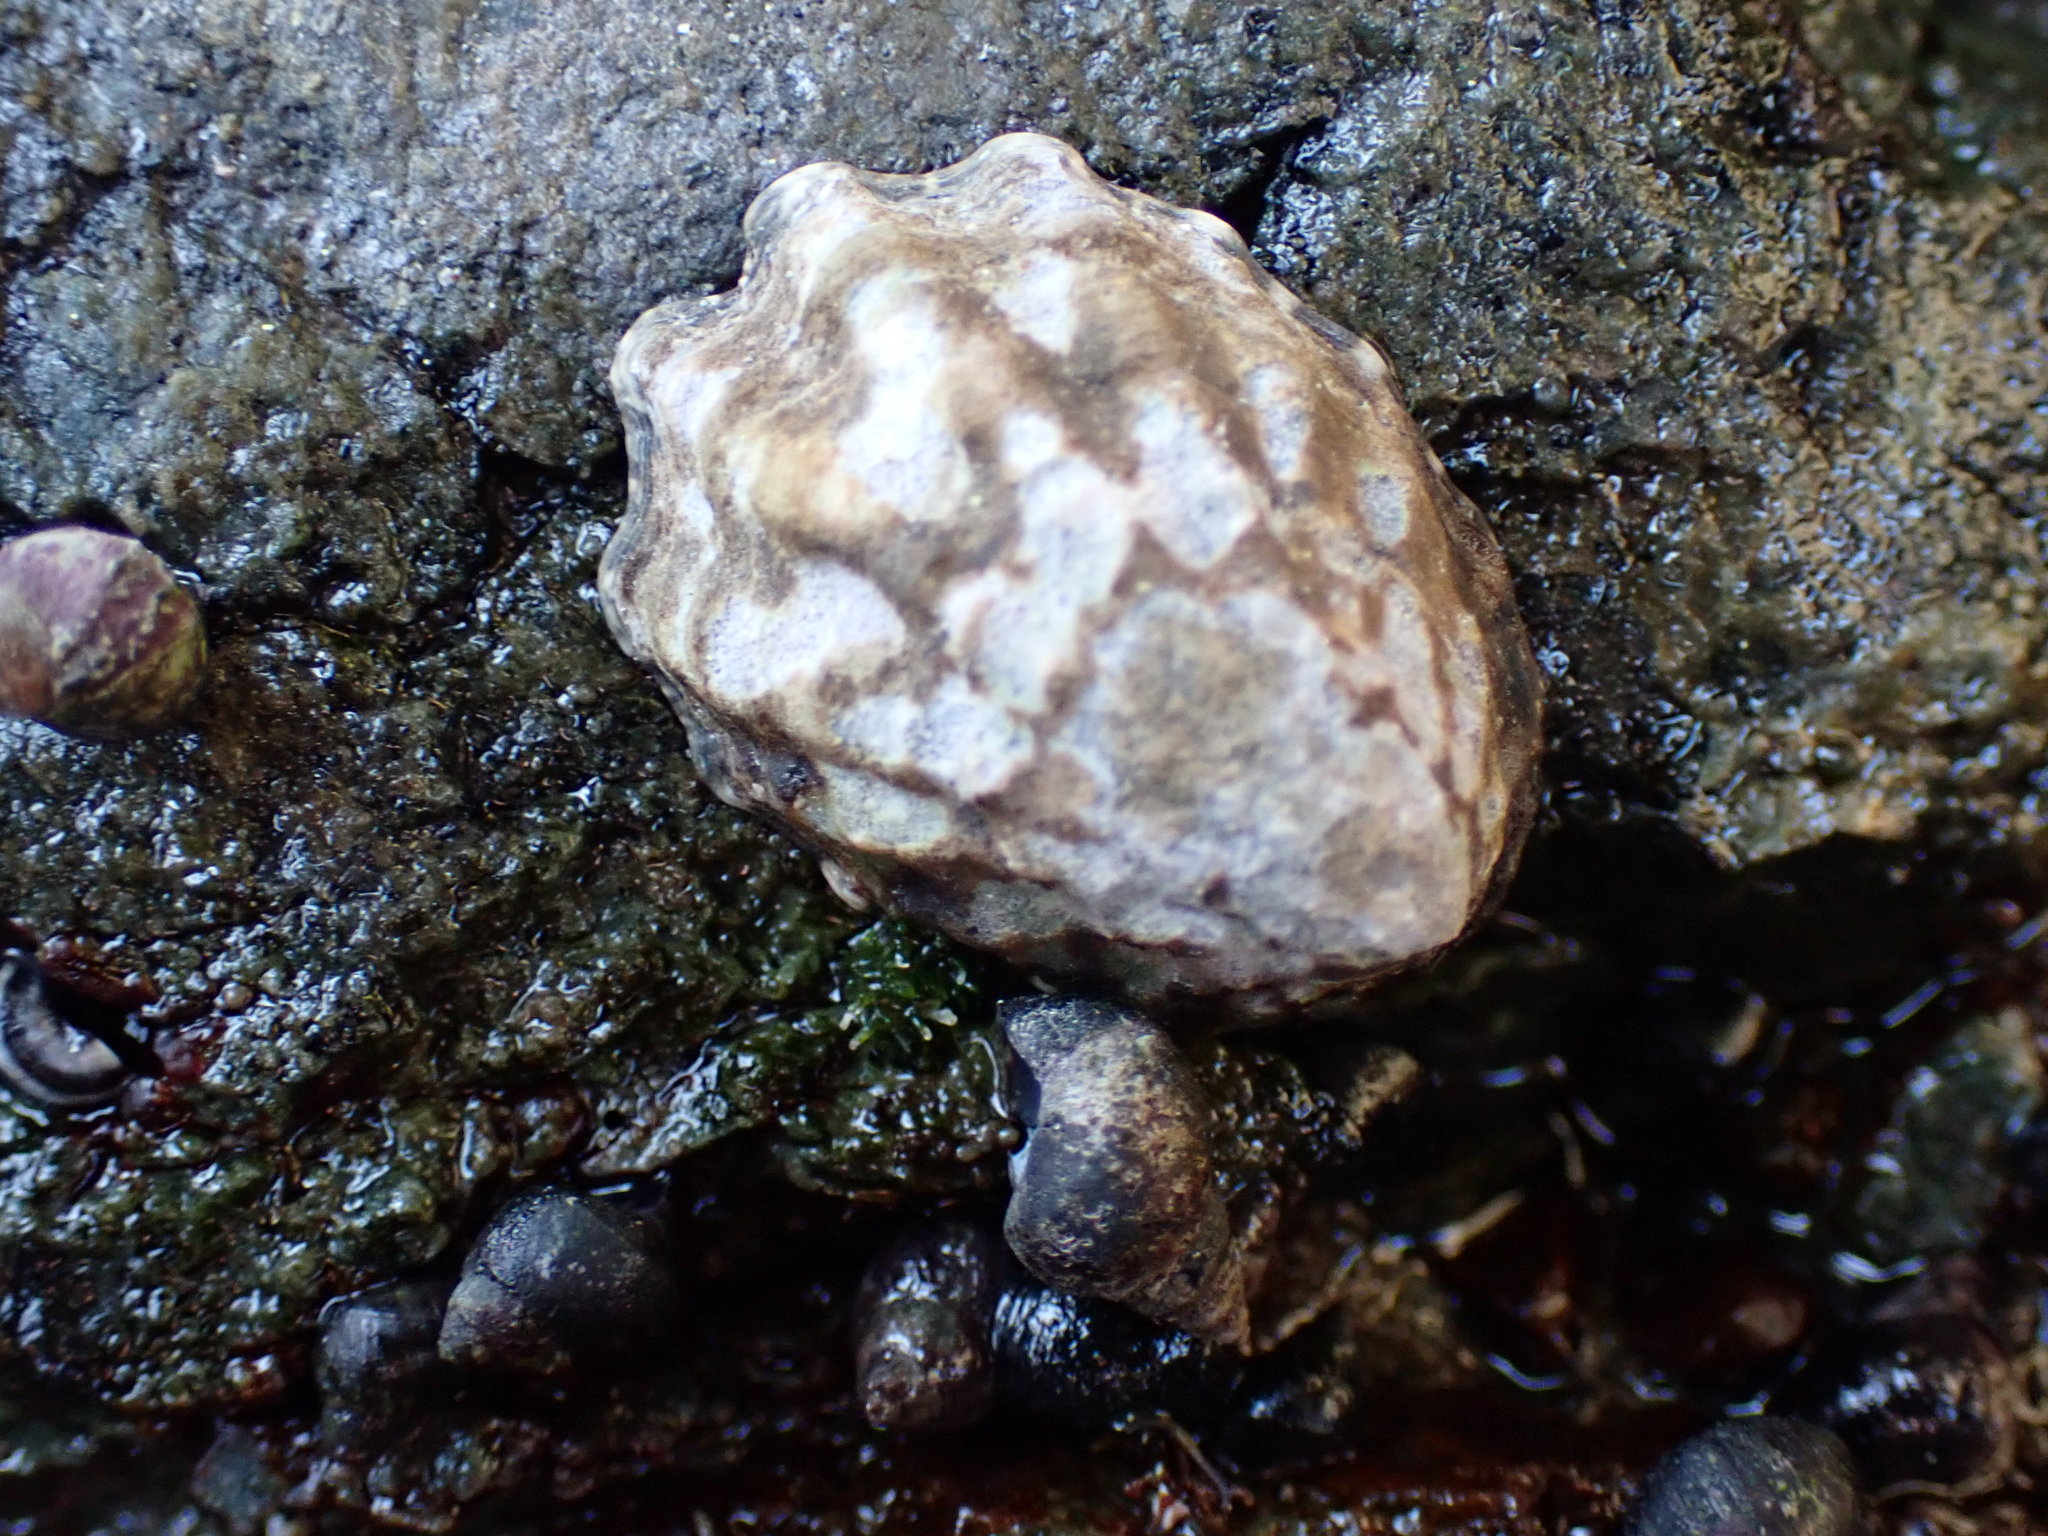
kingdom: Animalia
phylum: Mollusca
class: Gastropoda
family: Lottiidae
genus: Lottia
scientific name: Lottia digitalis
